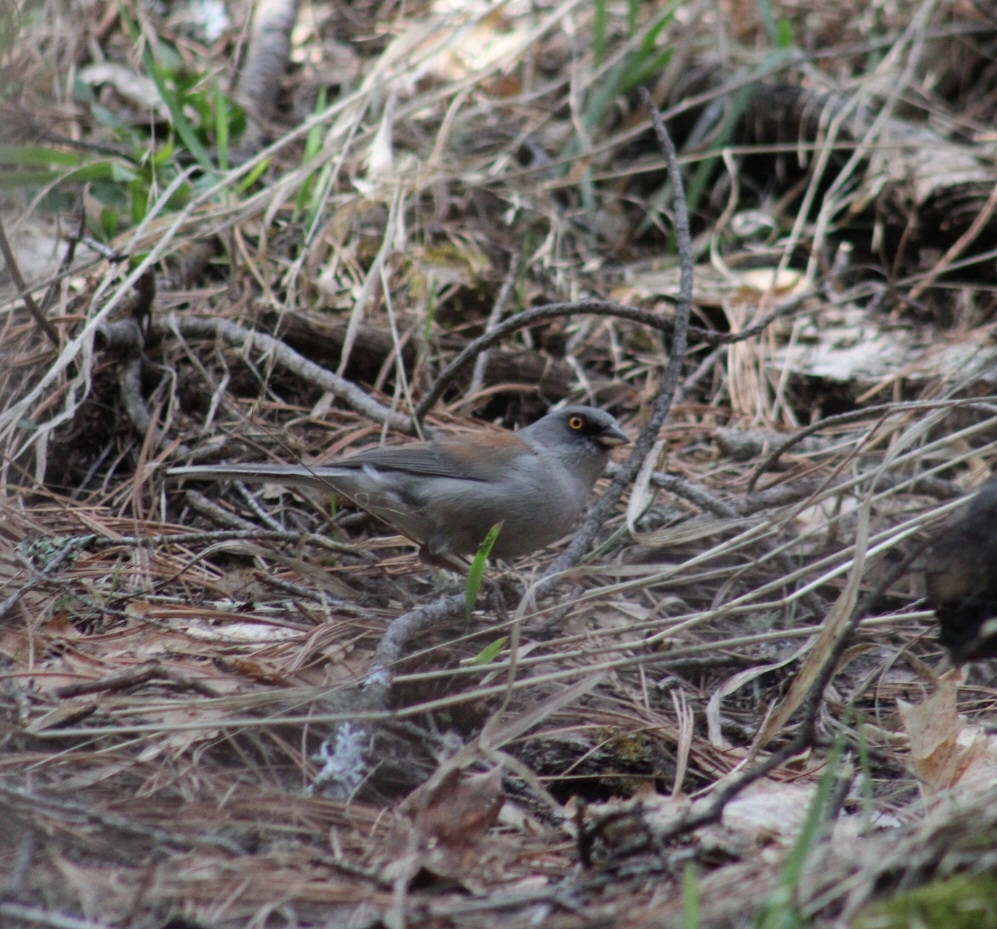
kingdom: Animalia
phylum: Chordata
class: Aves
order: Passeriformes
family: Passerellidae
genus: Junco
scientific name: Junco phaeonotus
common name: Yellow-eyed junco
